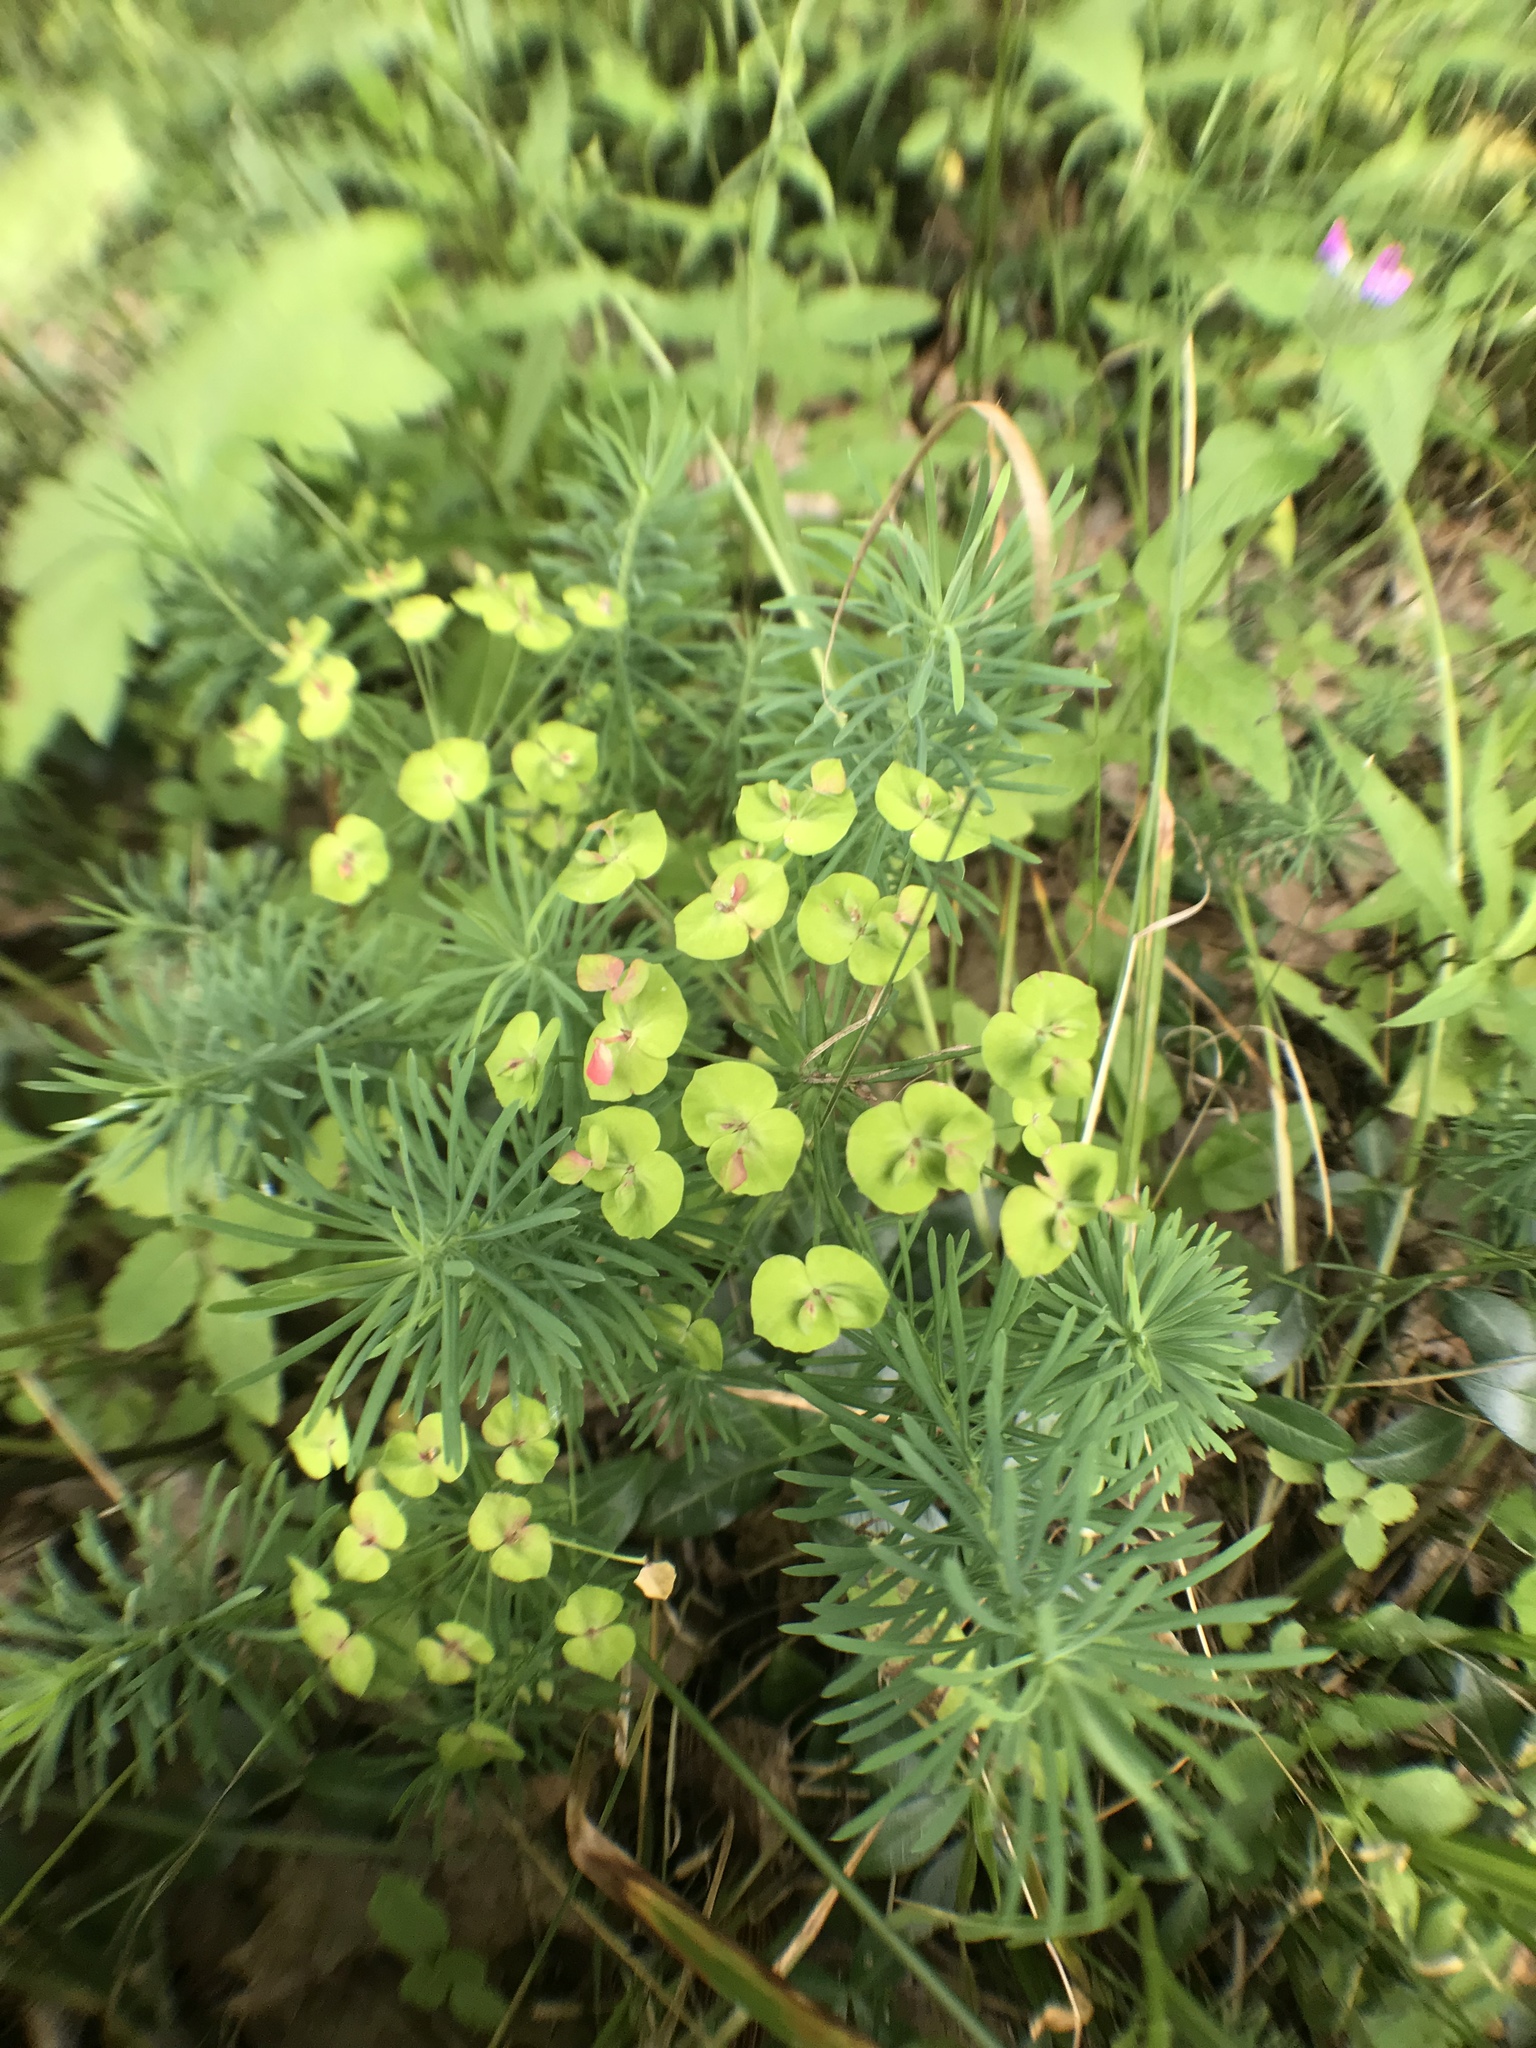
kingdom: Plantae
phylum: Tracheophyta
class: Magnoliopsida
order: Malpighiales
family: Euphorbiaceae
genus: Euphorbia
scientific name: Euphorbia cyparissias
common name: Cypress spurge
